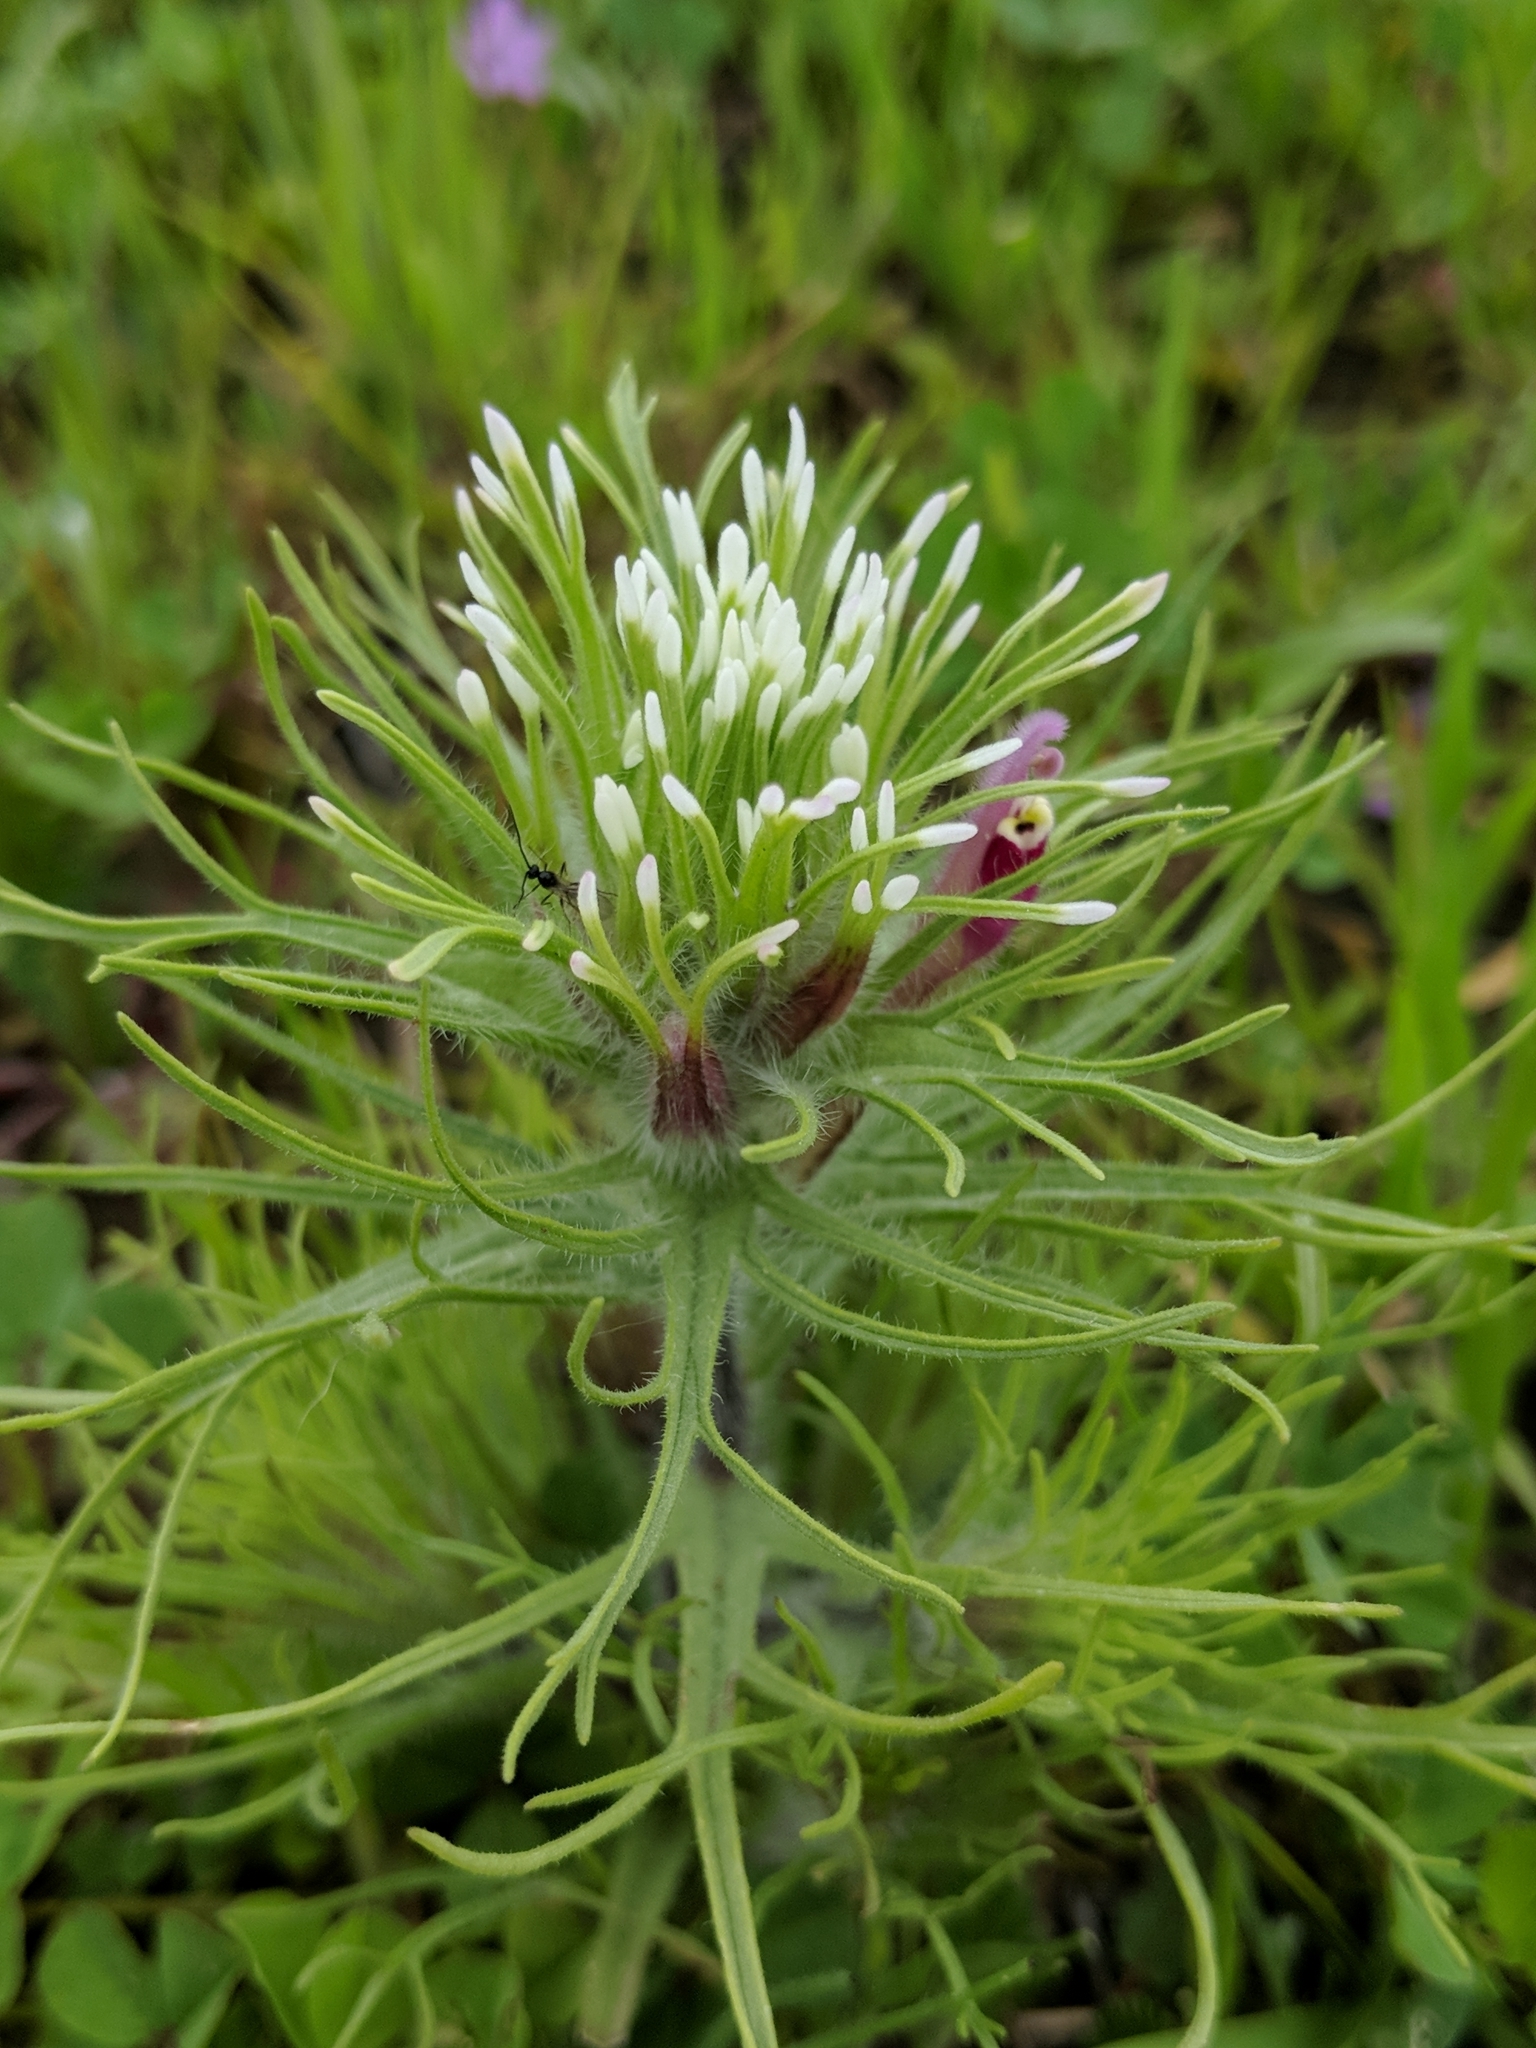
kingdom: Plantae
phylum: Tracheophyta
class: Magnoliopsida
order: Lamiales
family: Orobanchaceae
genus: Castilleja
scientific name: Castilleja exserta
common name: Purple owl-clover
